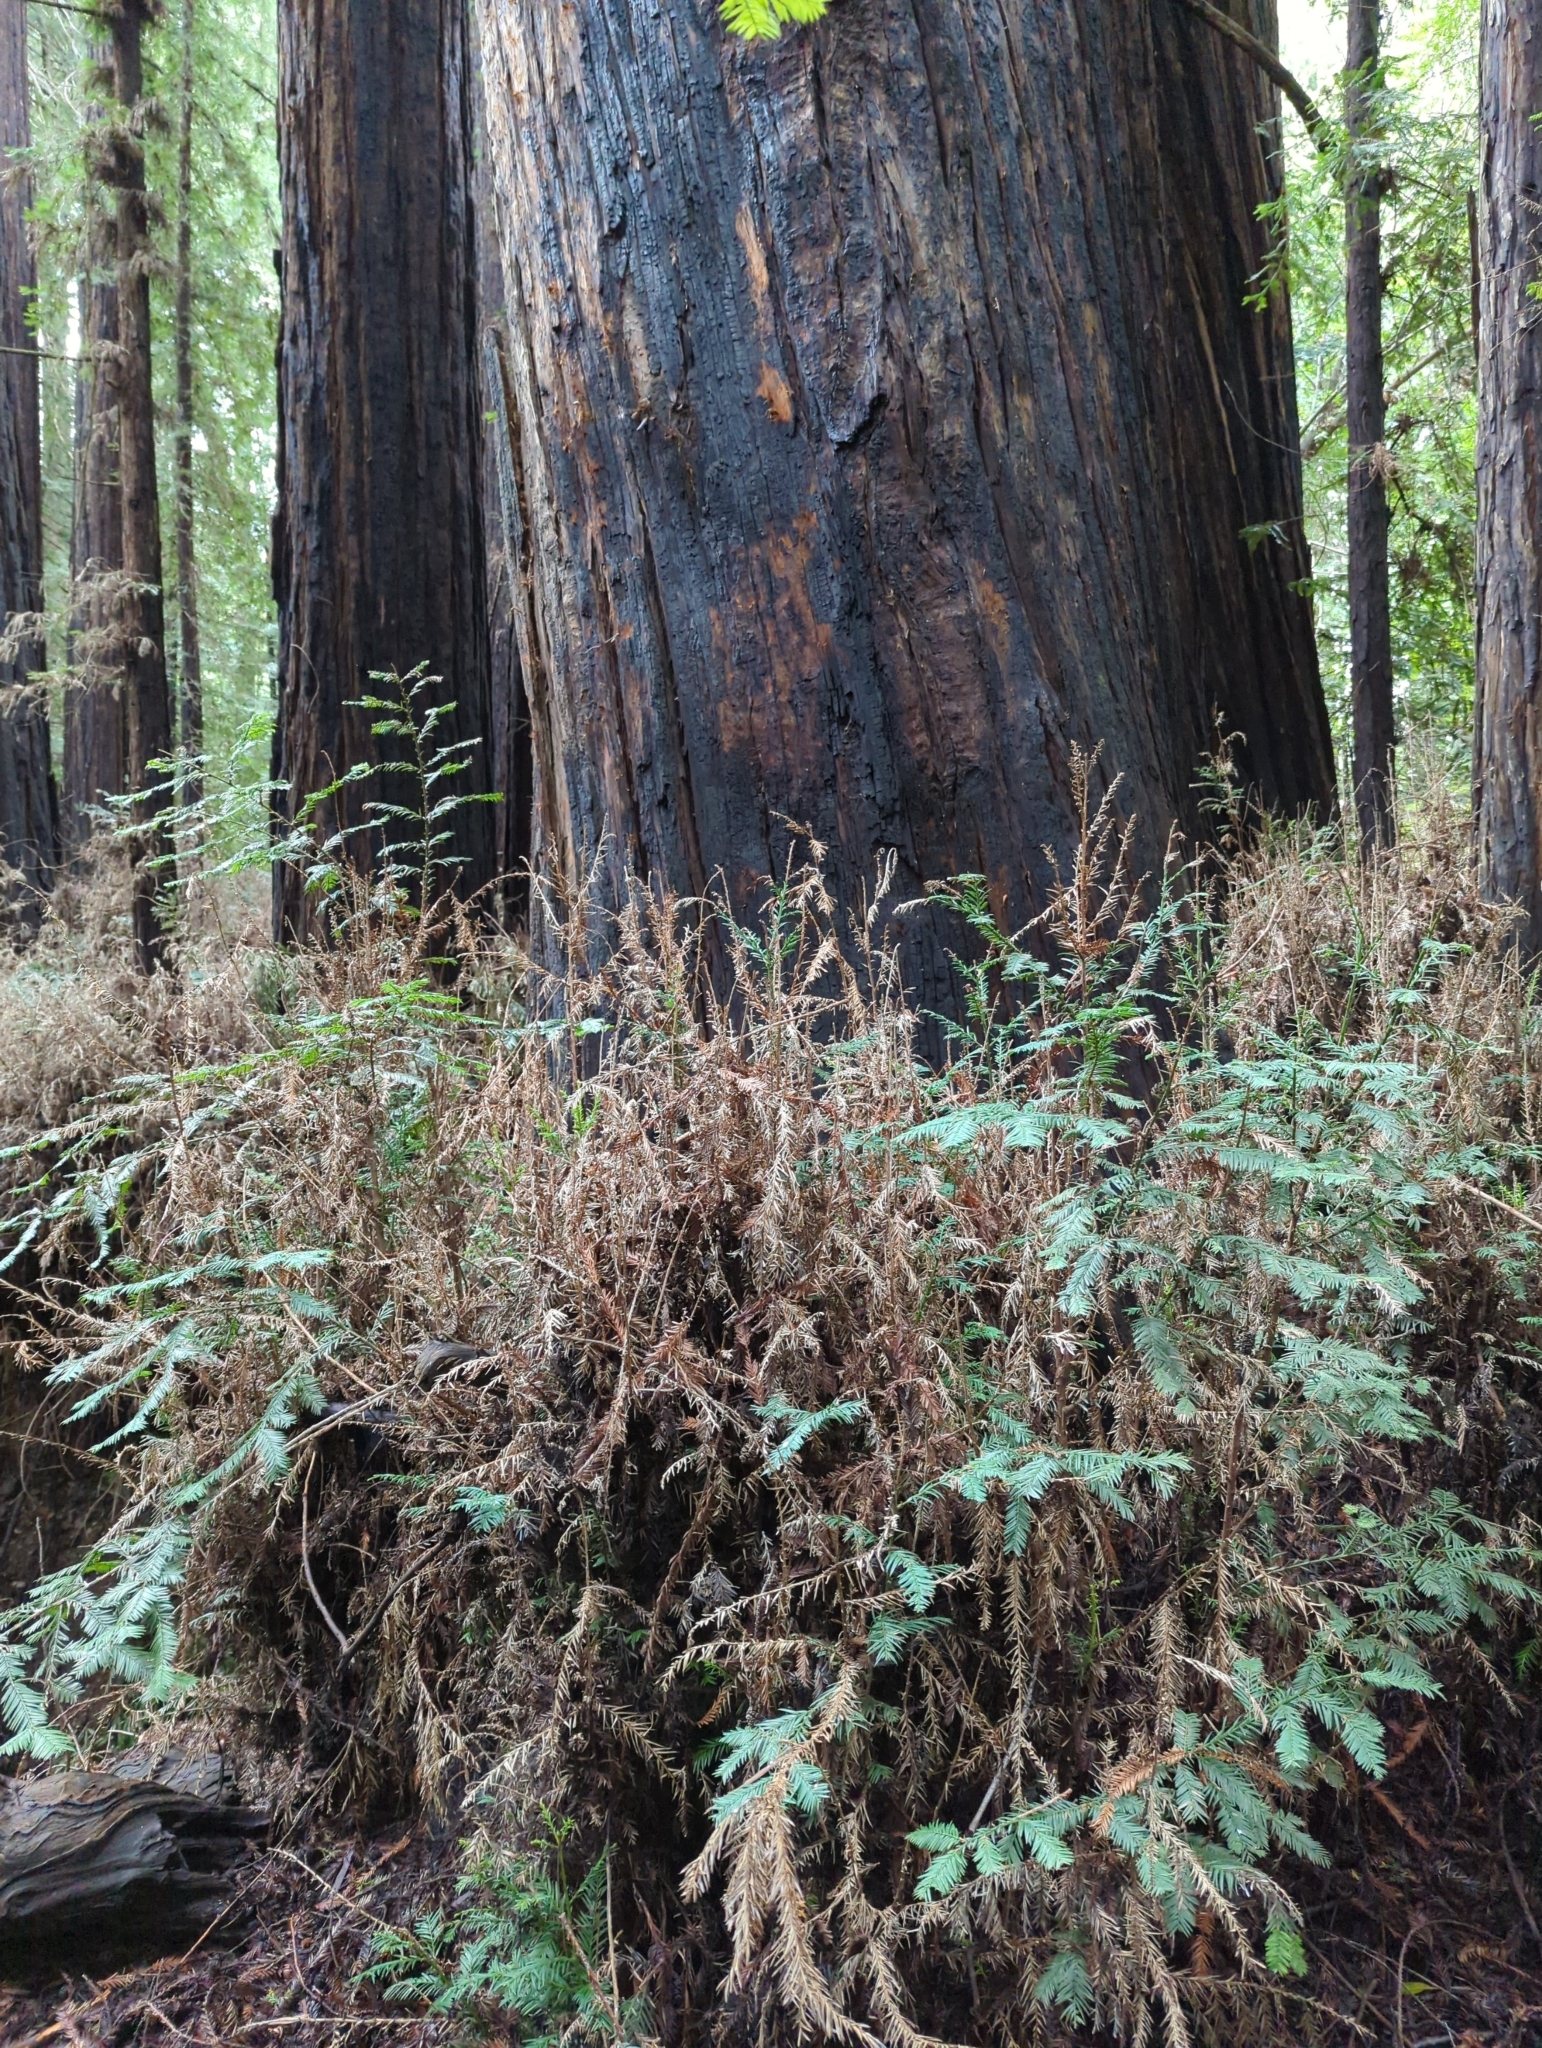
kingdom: Plantae
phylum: Tracheophyta
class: Pinopsida
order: Pinales
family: Cupressaceae
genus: Sequoia
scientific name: Sequoia sempervirens
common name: Coast redwood
